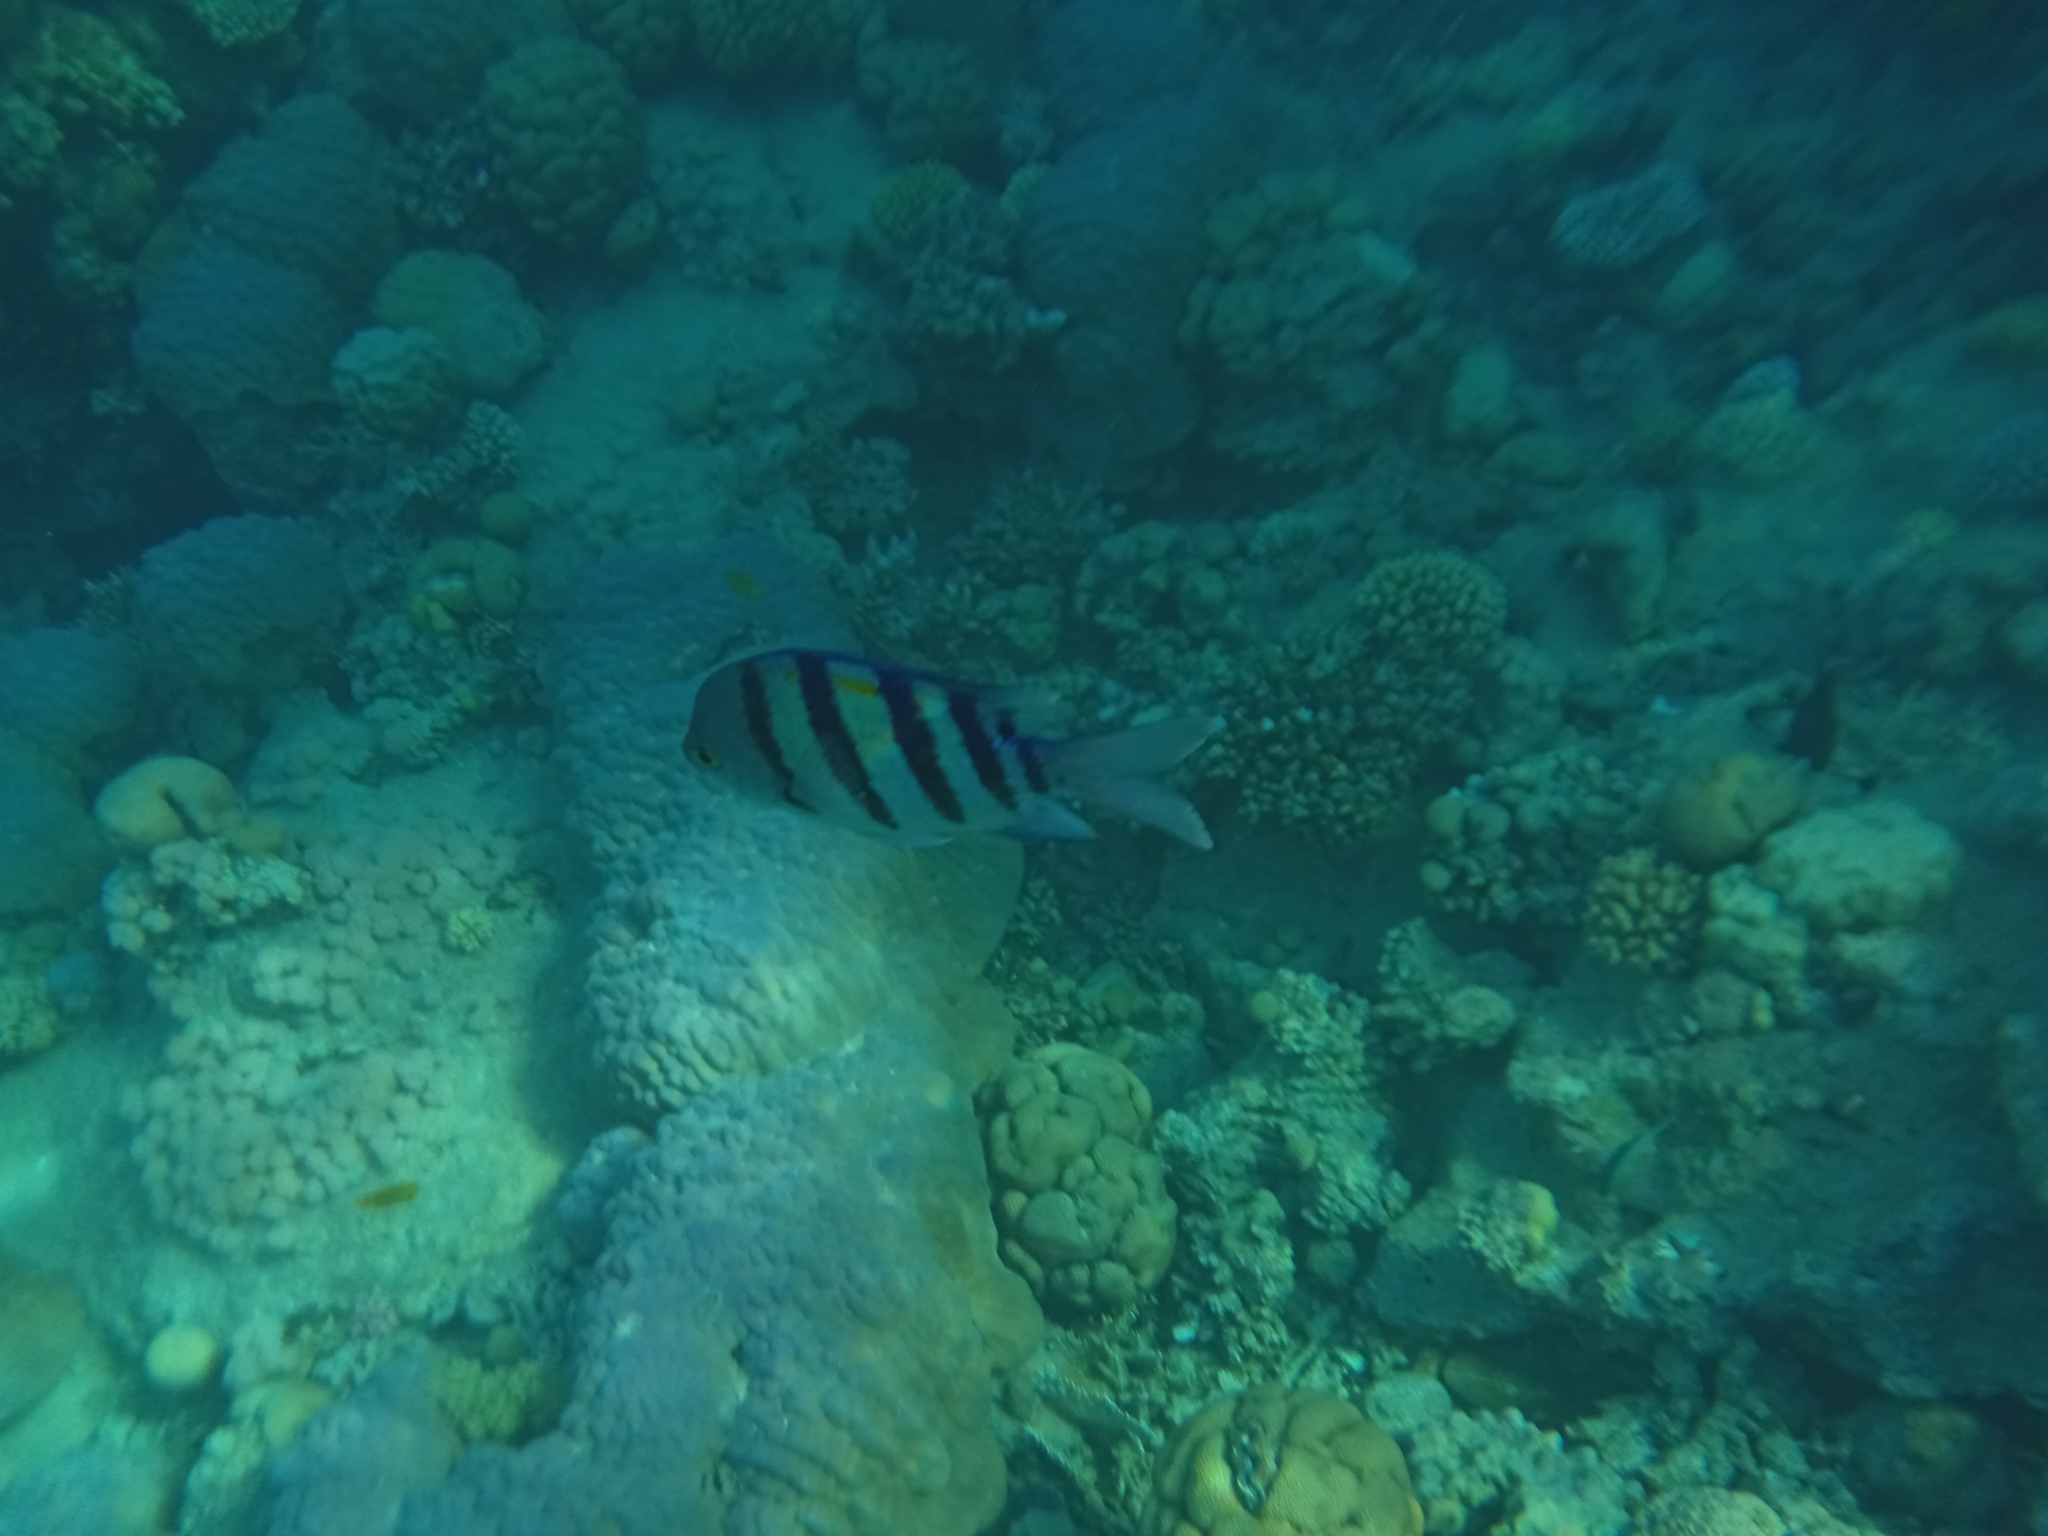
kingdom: Animalia
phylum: Chordata
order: Perciformes
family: Pomacentridae
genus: Abudefduf
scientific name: Abudefduf vaigiensis
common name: Indo-pacific sergeant
